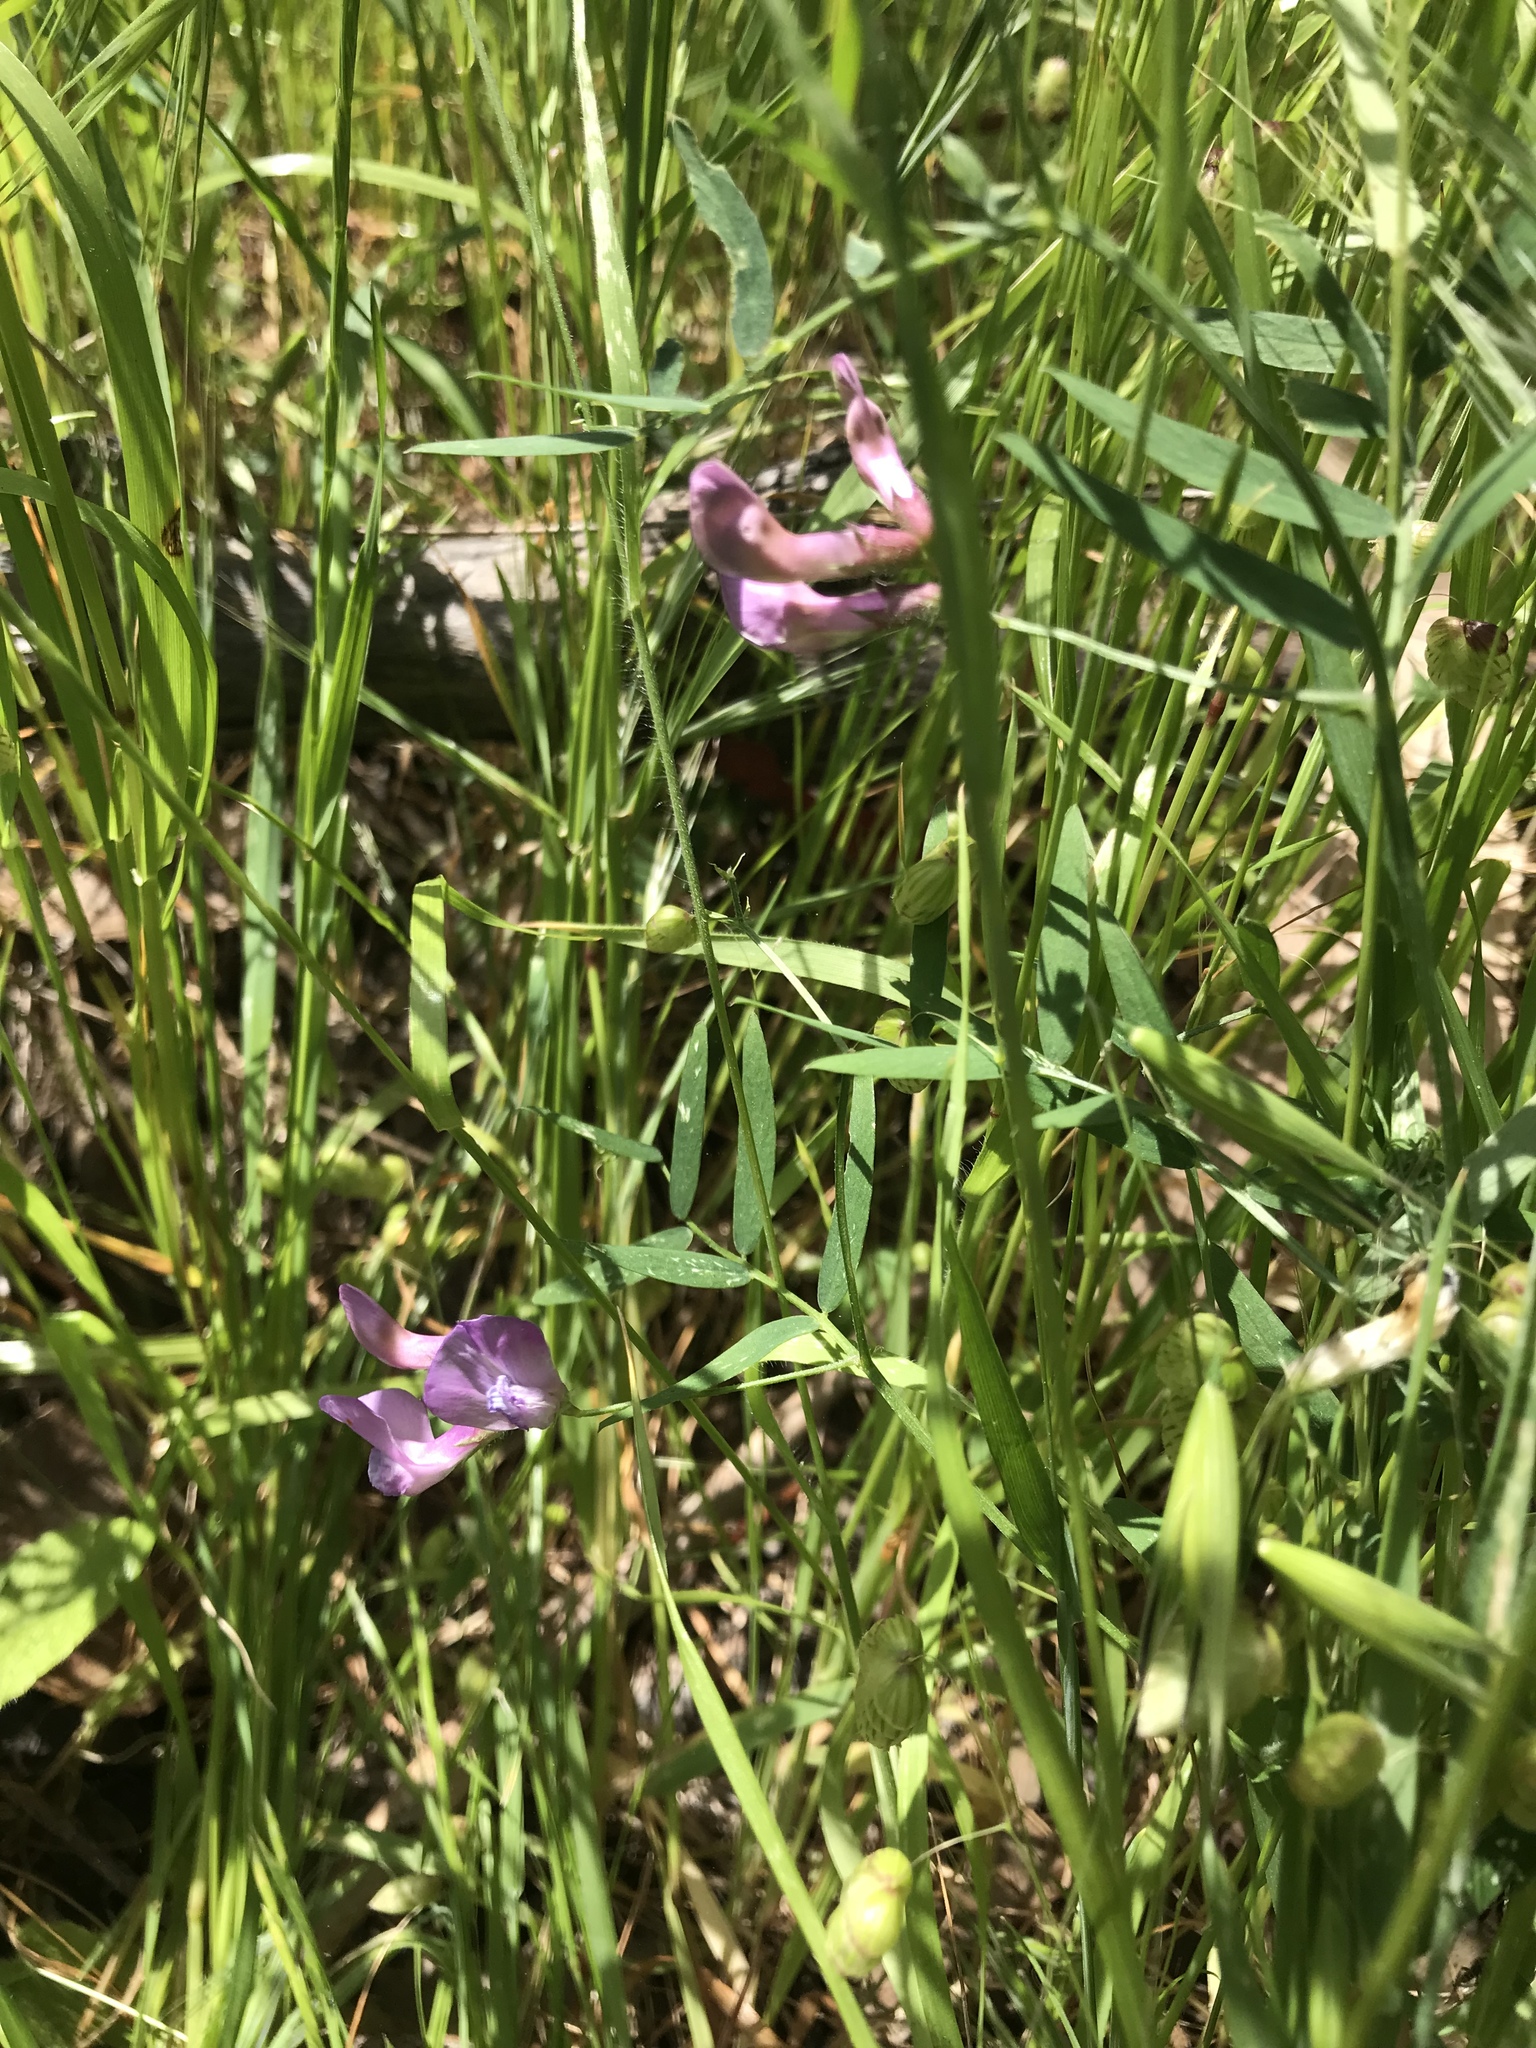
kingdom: Plantae
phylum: Tracheophyta
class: Magnoliopsida
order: Fabales
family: Fabaceae
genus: Vicia
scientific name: Vicia americana
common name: American vetch
